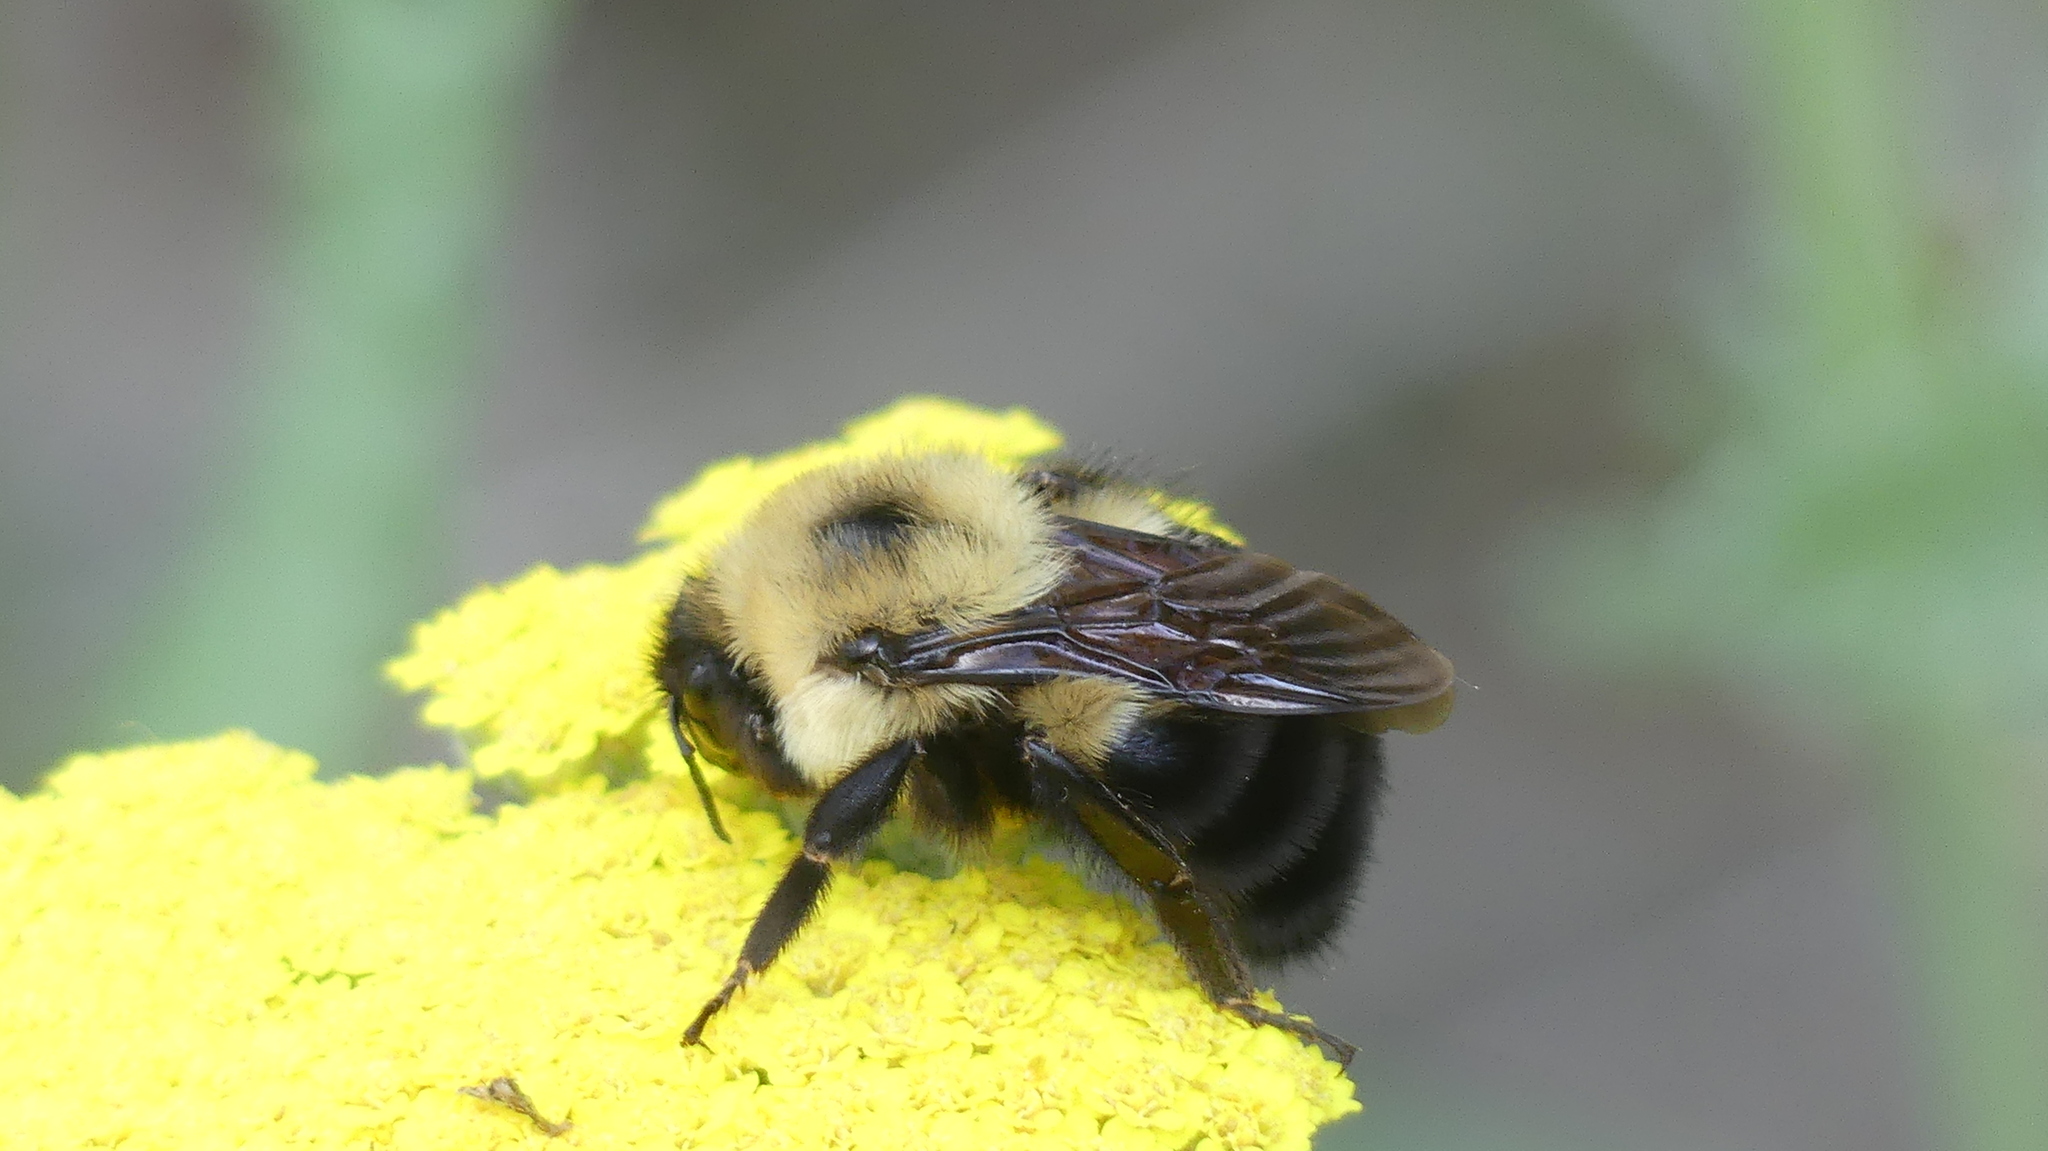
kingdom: Animalia
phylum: Arthropoda
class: Insecta
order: Hymenoptera
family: Apidae
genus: Bombus
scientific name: Bombus bimaculatus
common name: Two-spotted bumble bee
